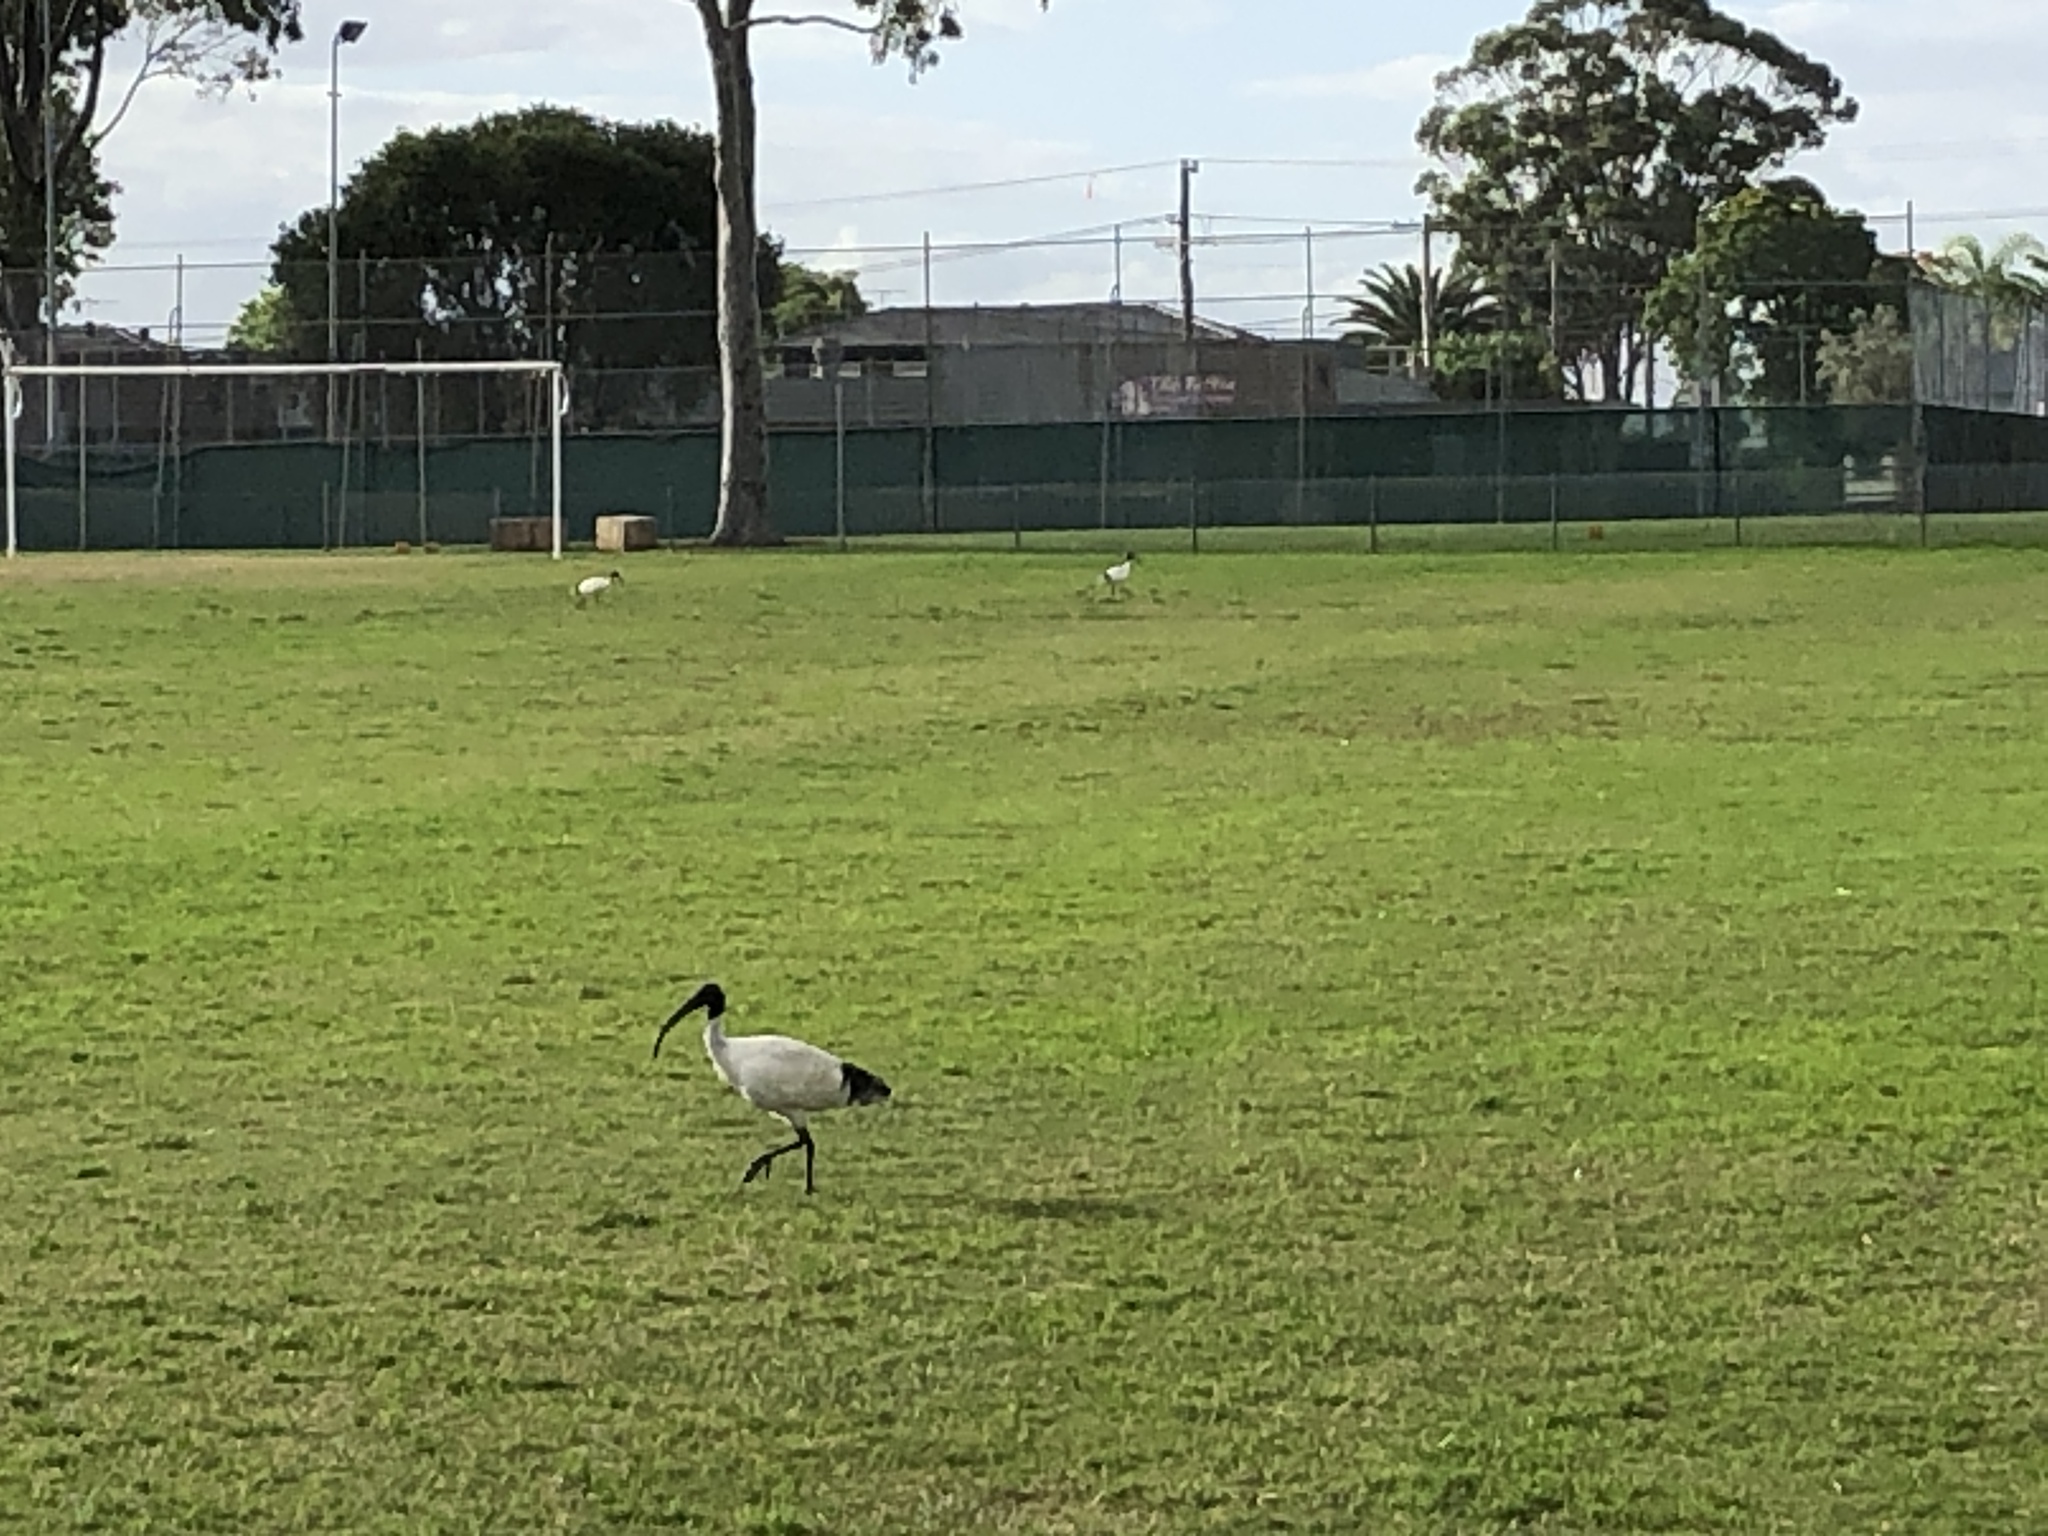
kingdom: Animalia
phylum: Chordata
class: Aves
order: Pelecaniformes
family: Threskiornithidae
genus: Threskiornis
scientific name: Threskiornis molucca
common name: Australian white ibis
